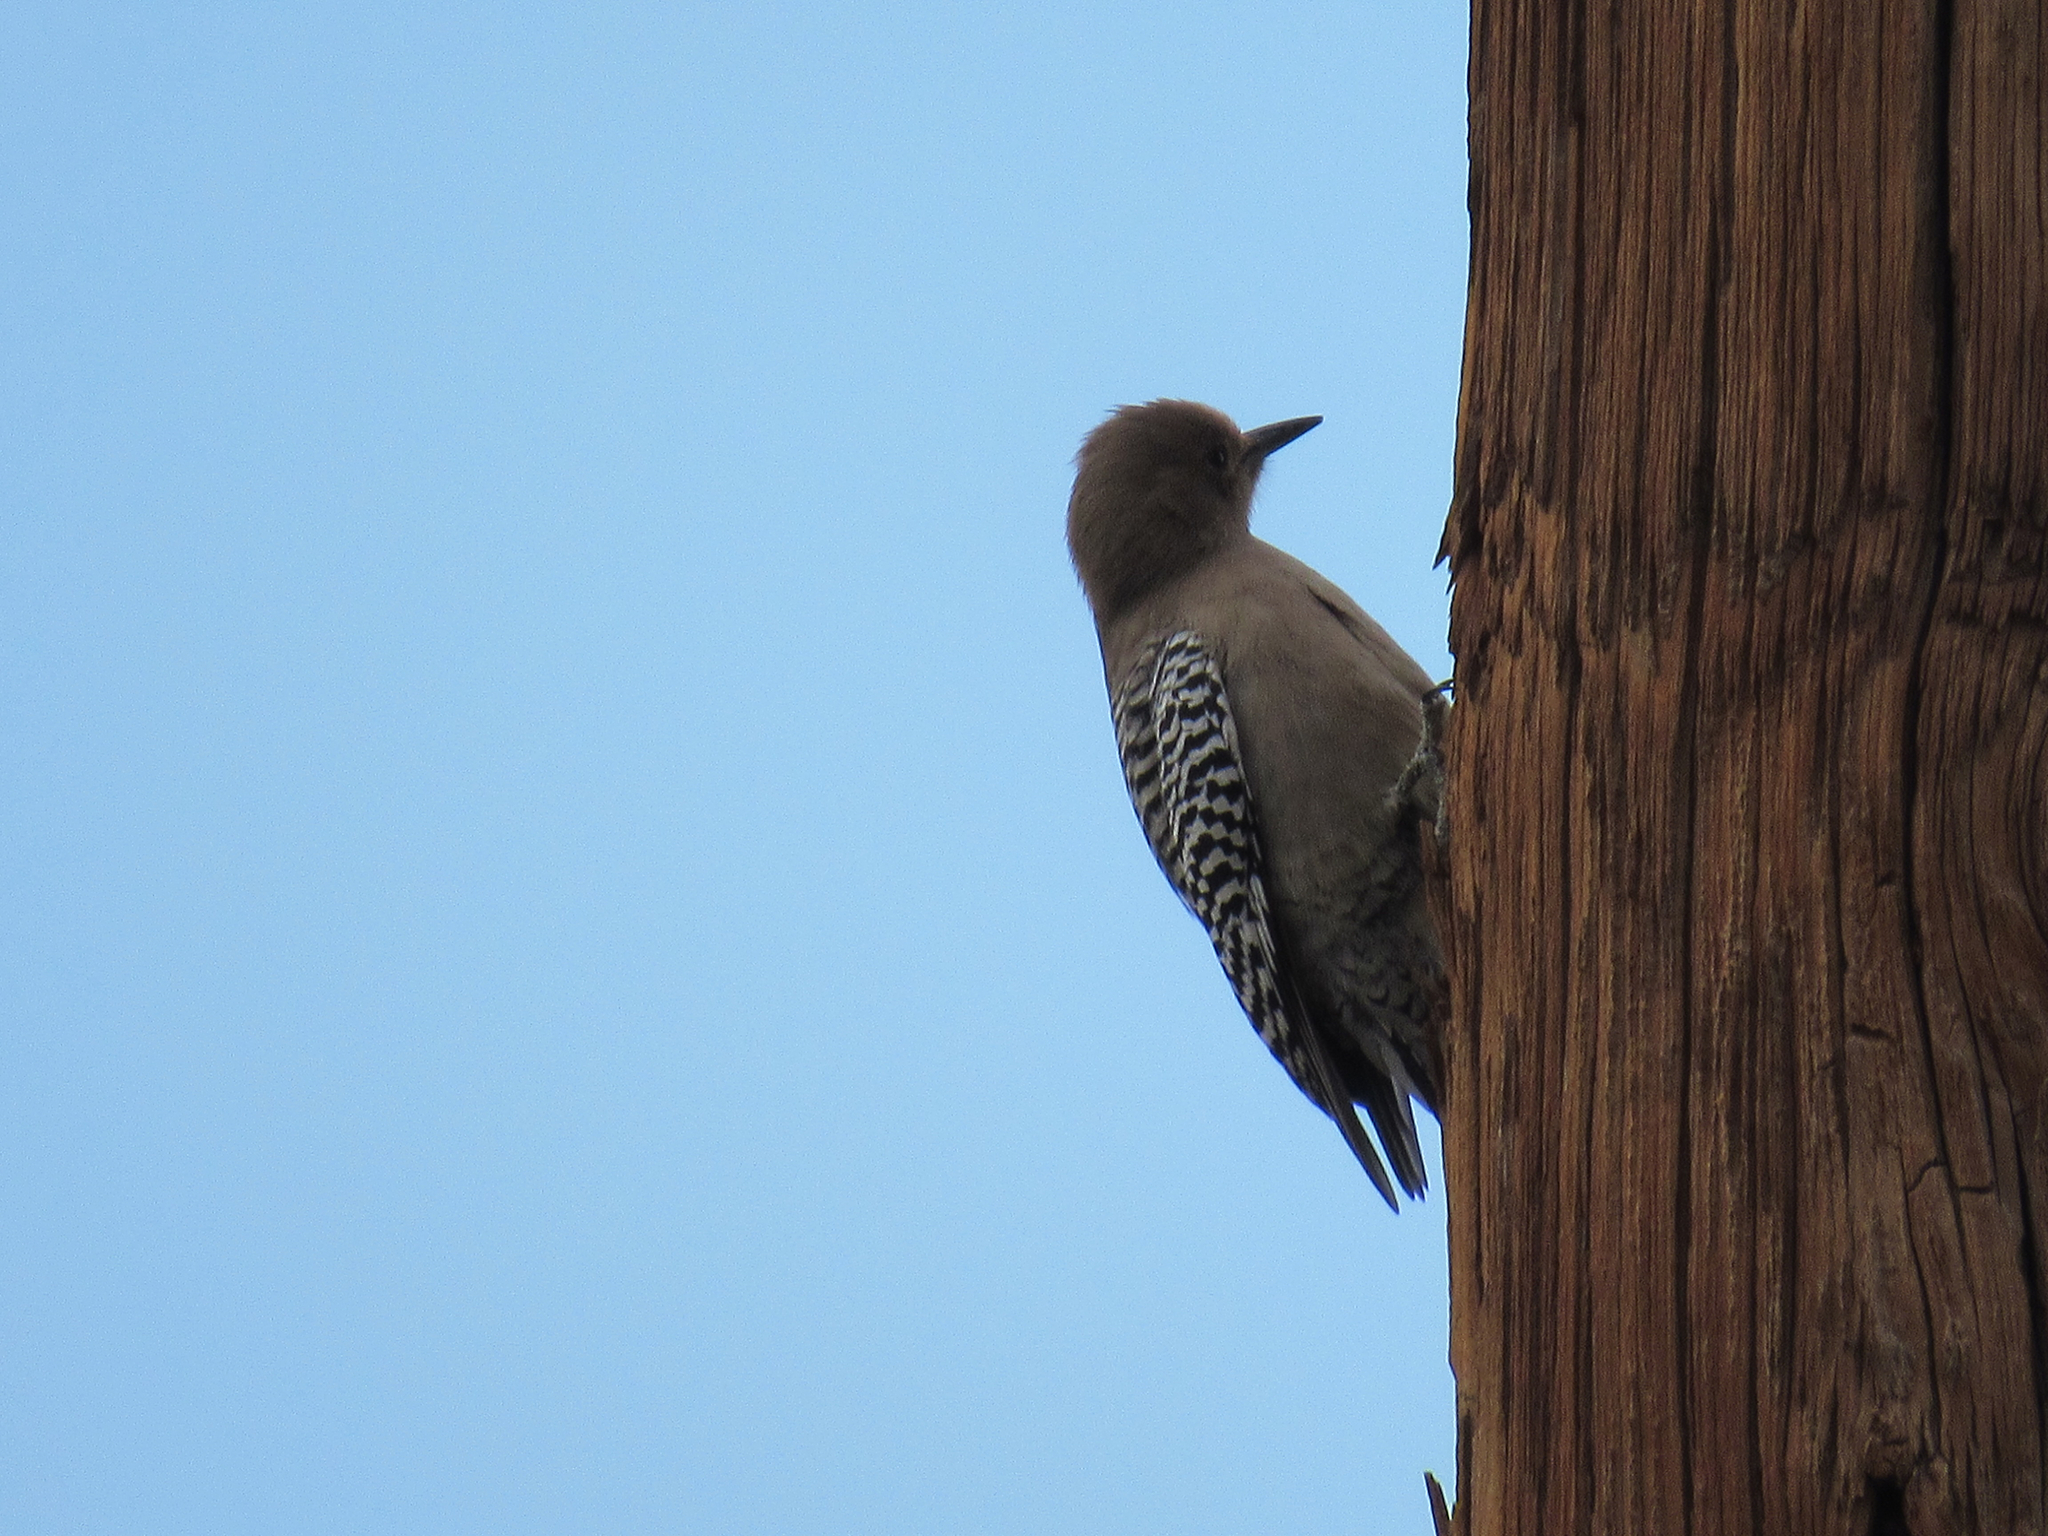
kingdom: Animalia
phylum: Chordata
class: Aves
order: Piciformes
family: Picidae
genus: Melanerpes
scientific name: Melanerpes uropygialis
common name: Gila woodpecker
